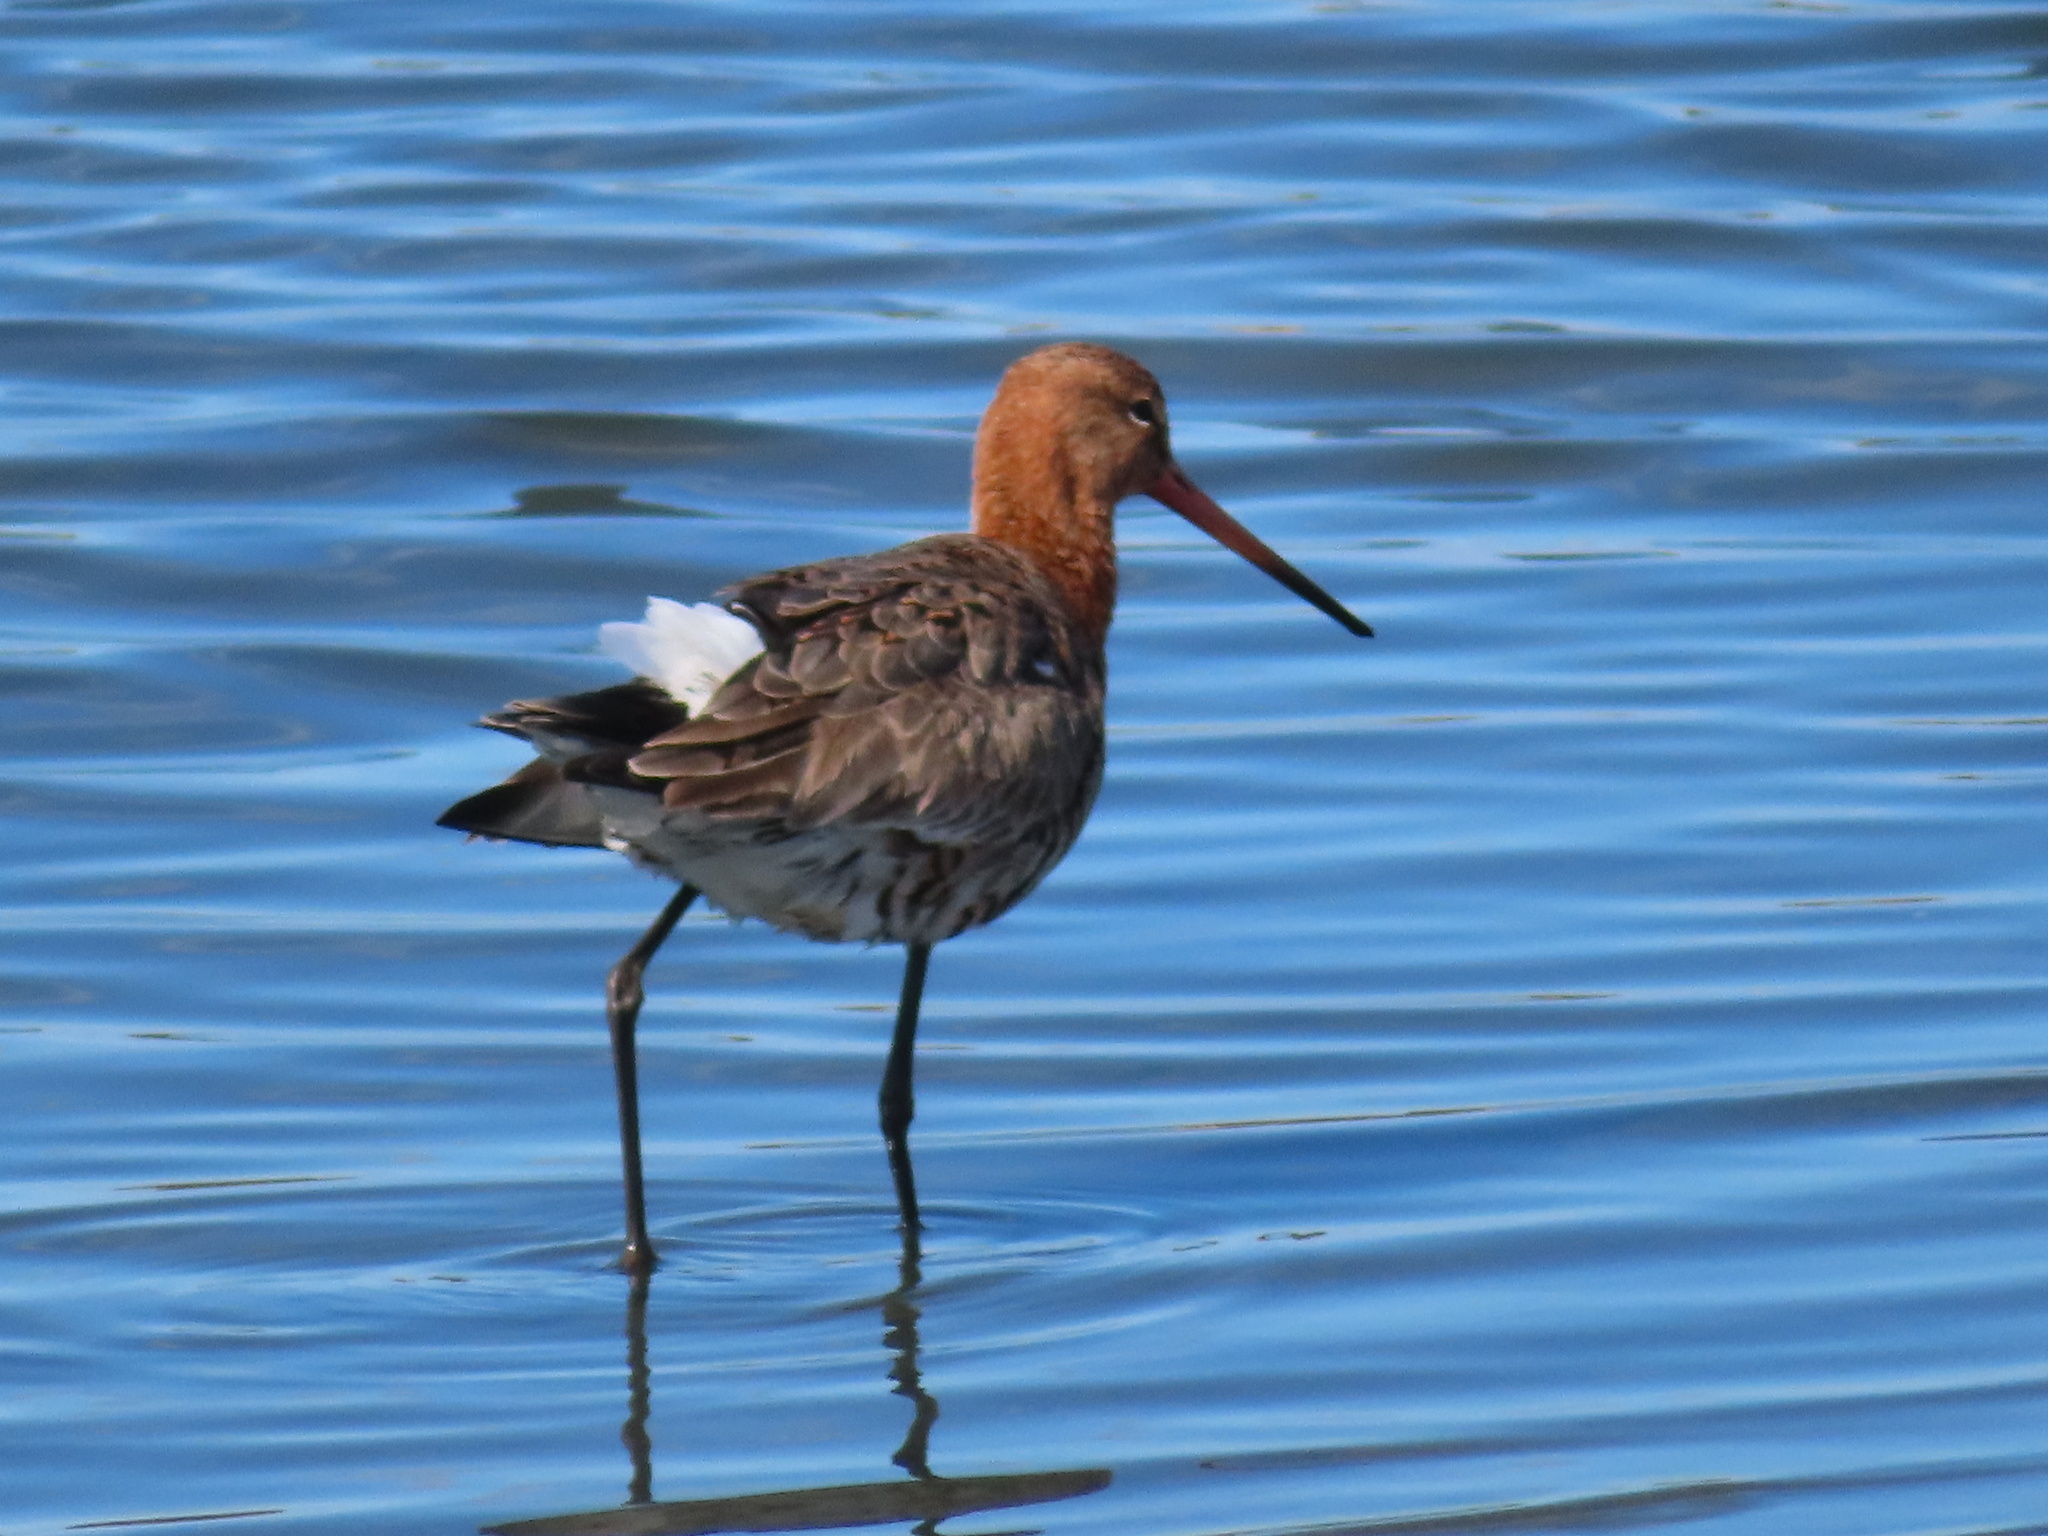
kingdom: Animalia
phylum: Chordata
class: Aves
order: Charadriiformes
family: Scolopacidae
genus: Limosa
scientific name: Limosa limosa
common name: Black-tailed godwit
